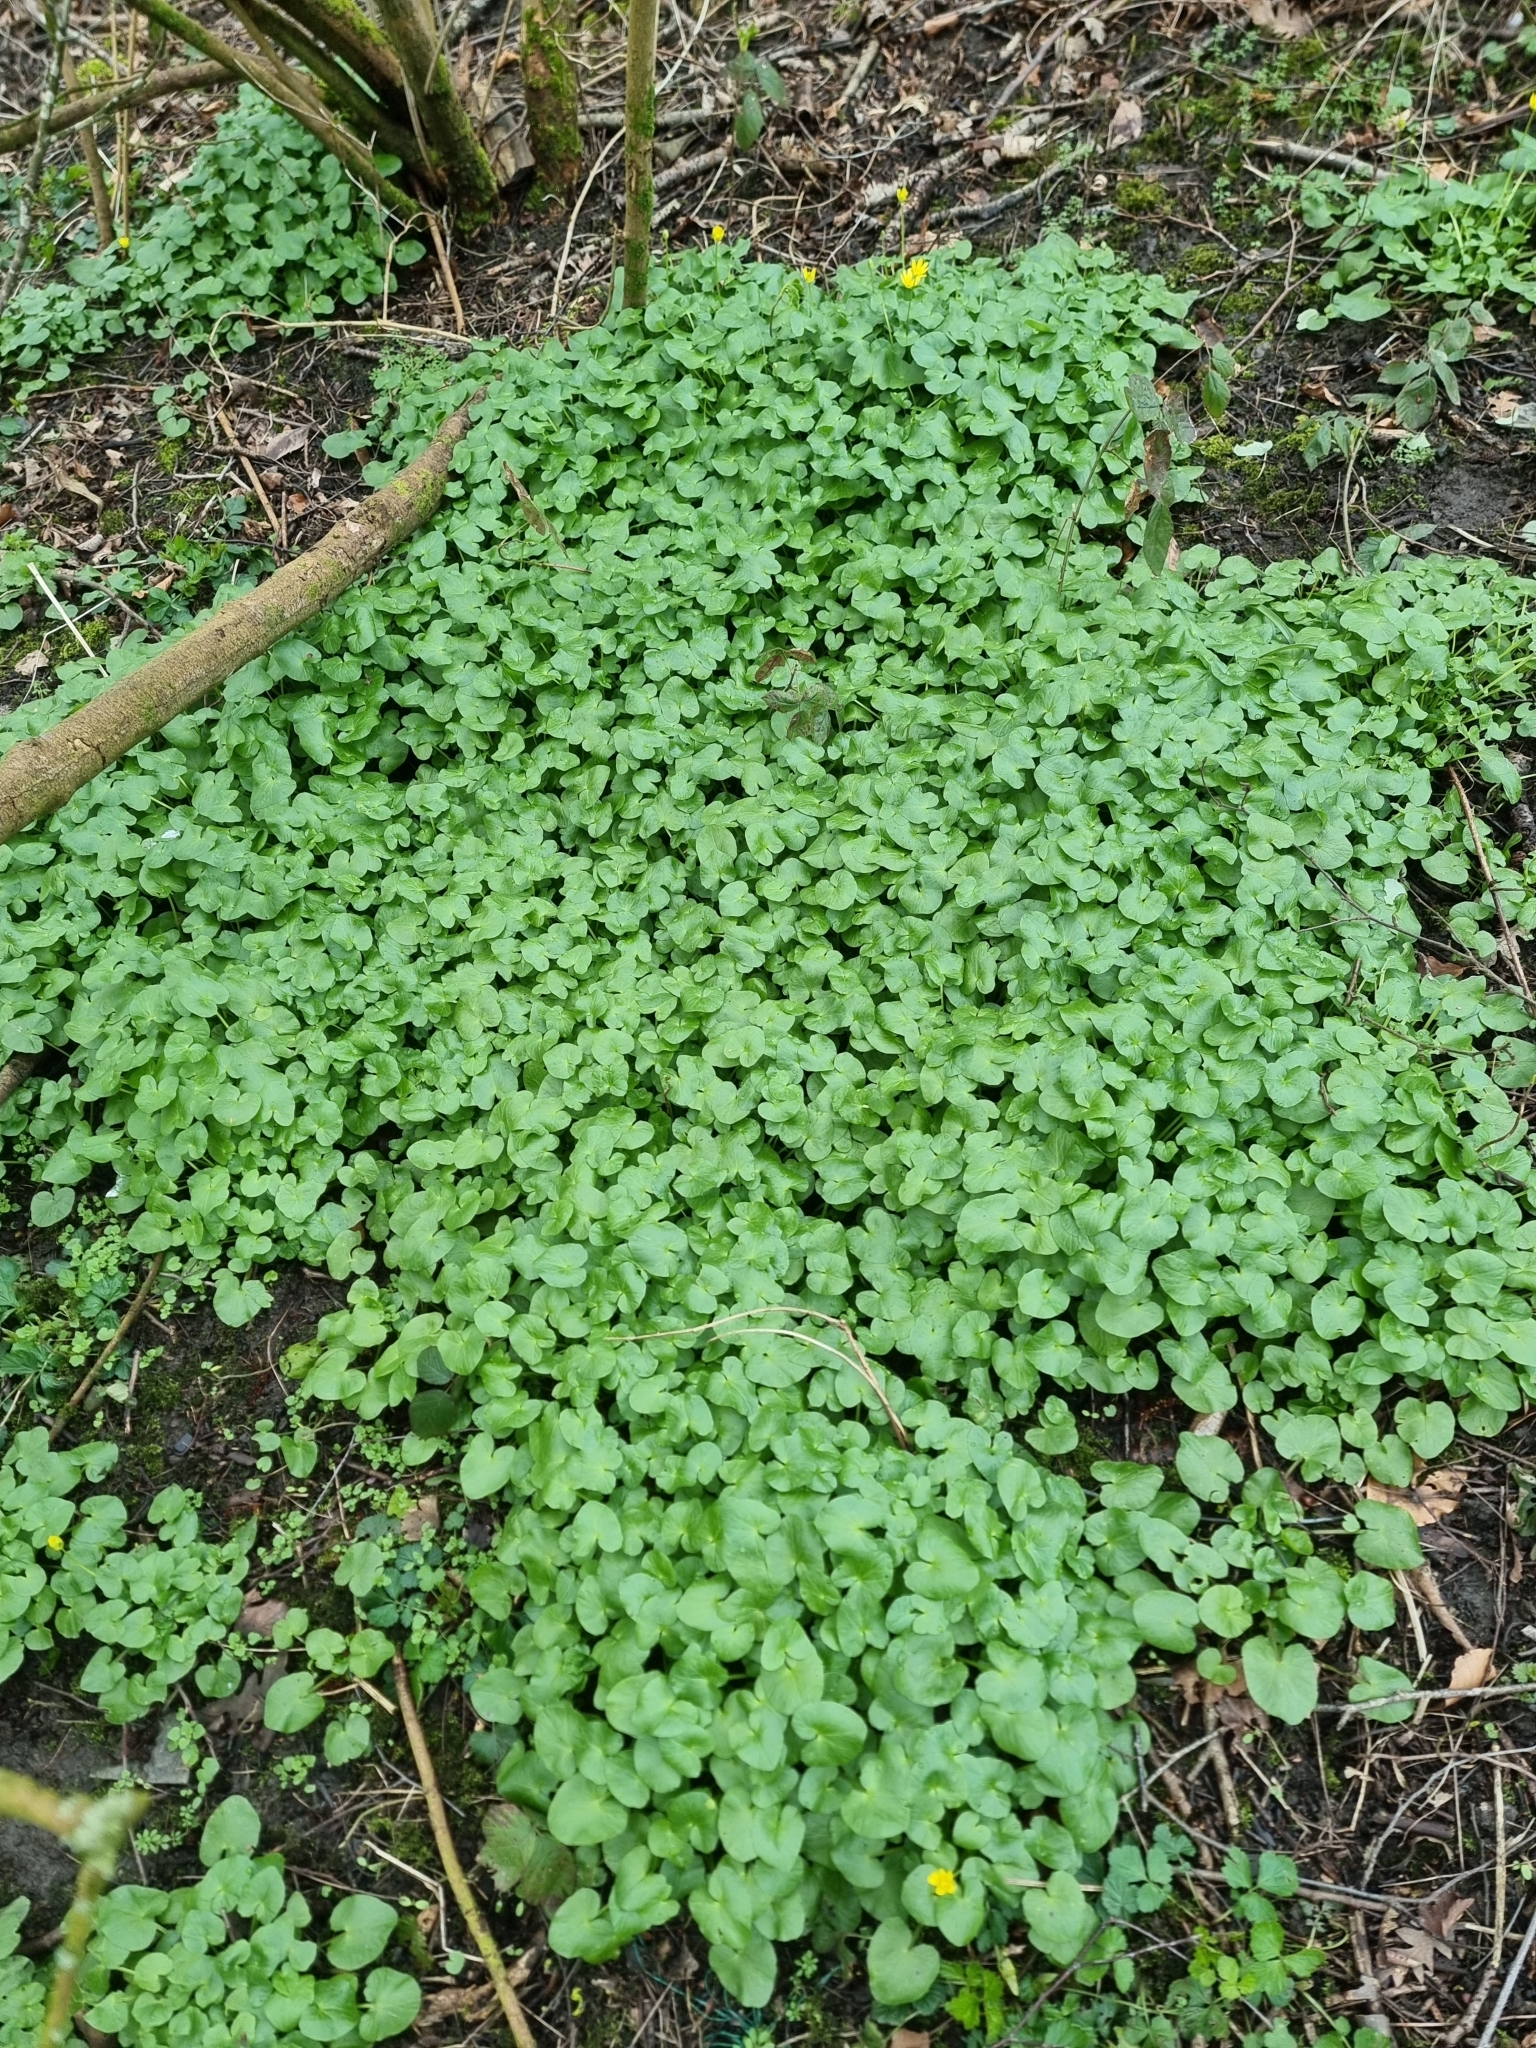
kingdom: Plantae
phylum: Tracheophyta
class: Magnoliopsida
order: Ranunculales
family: Ranunculaceae
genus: Ficaria
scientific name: Ficaria verna
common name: Lesser celandine
